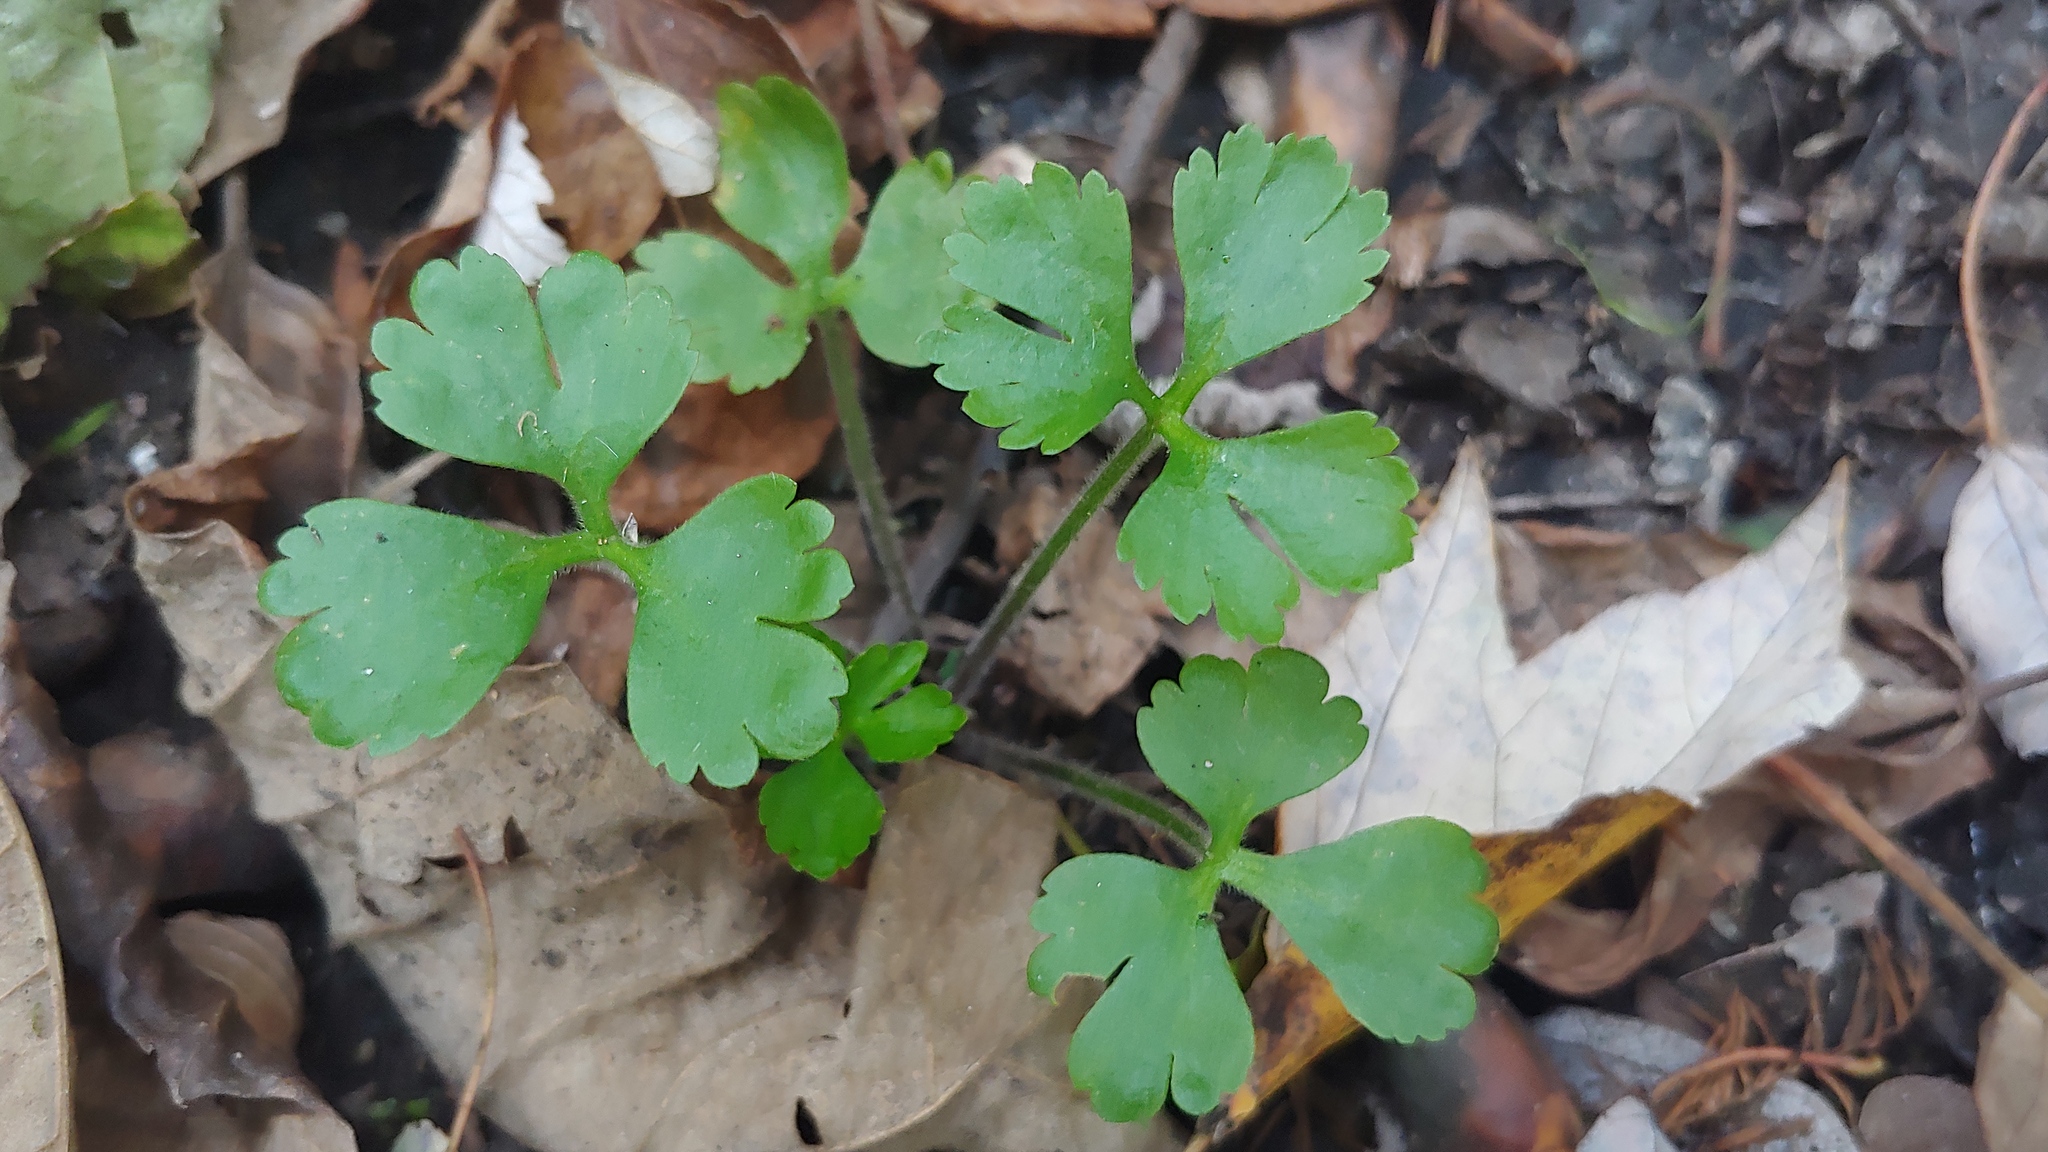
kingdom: Plantae
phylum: Tracheophyta
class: Magnoliopsida
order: Ranunculales
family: Ranunculaceae
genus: Ranunculus
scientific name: Ranunculus flabellaris
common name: Yellow water-crowfoot
